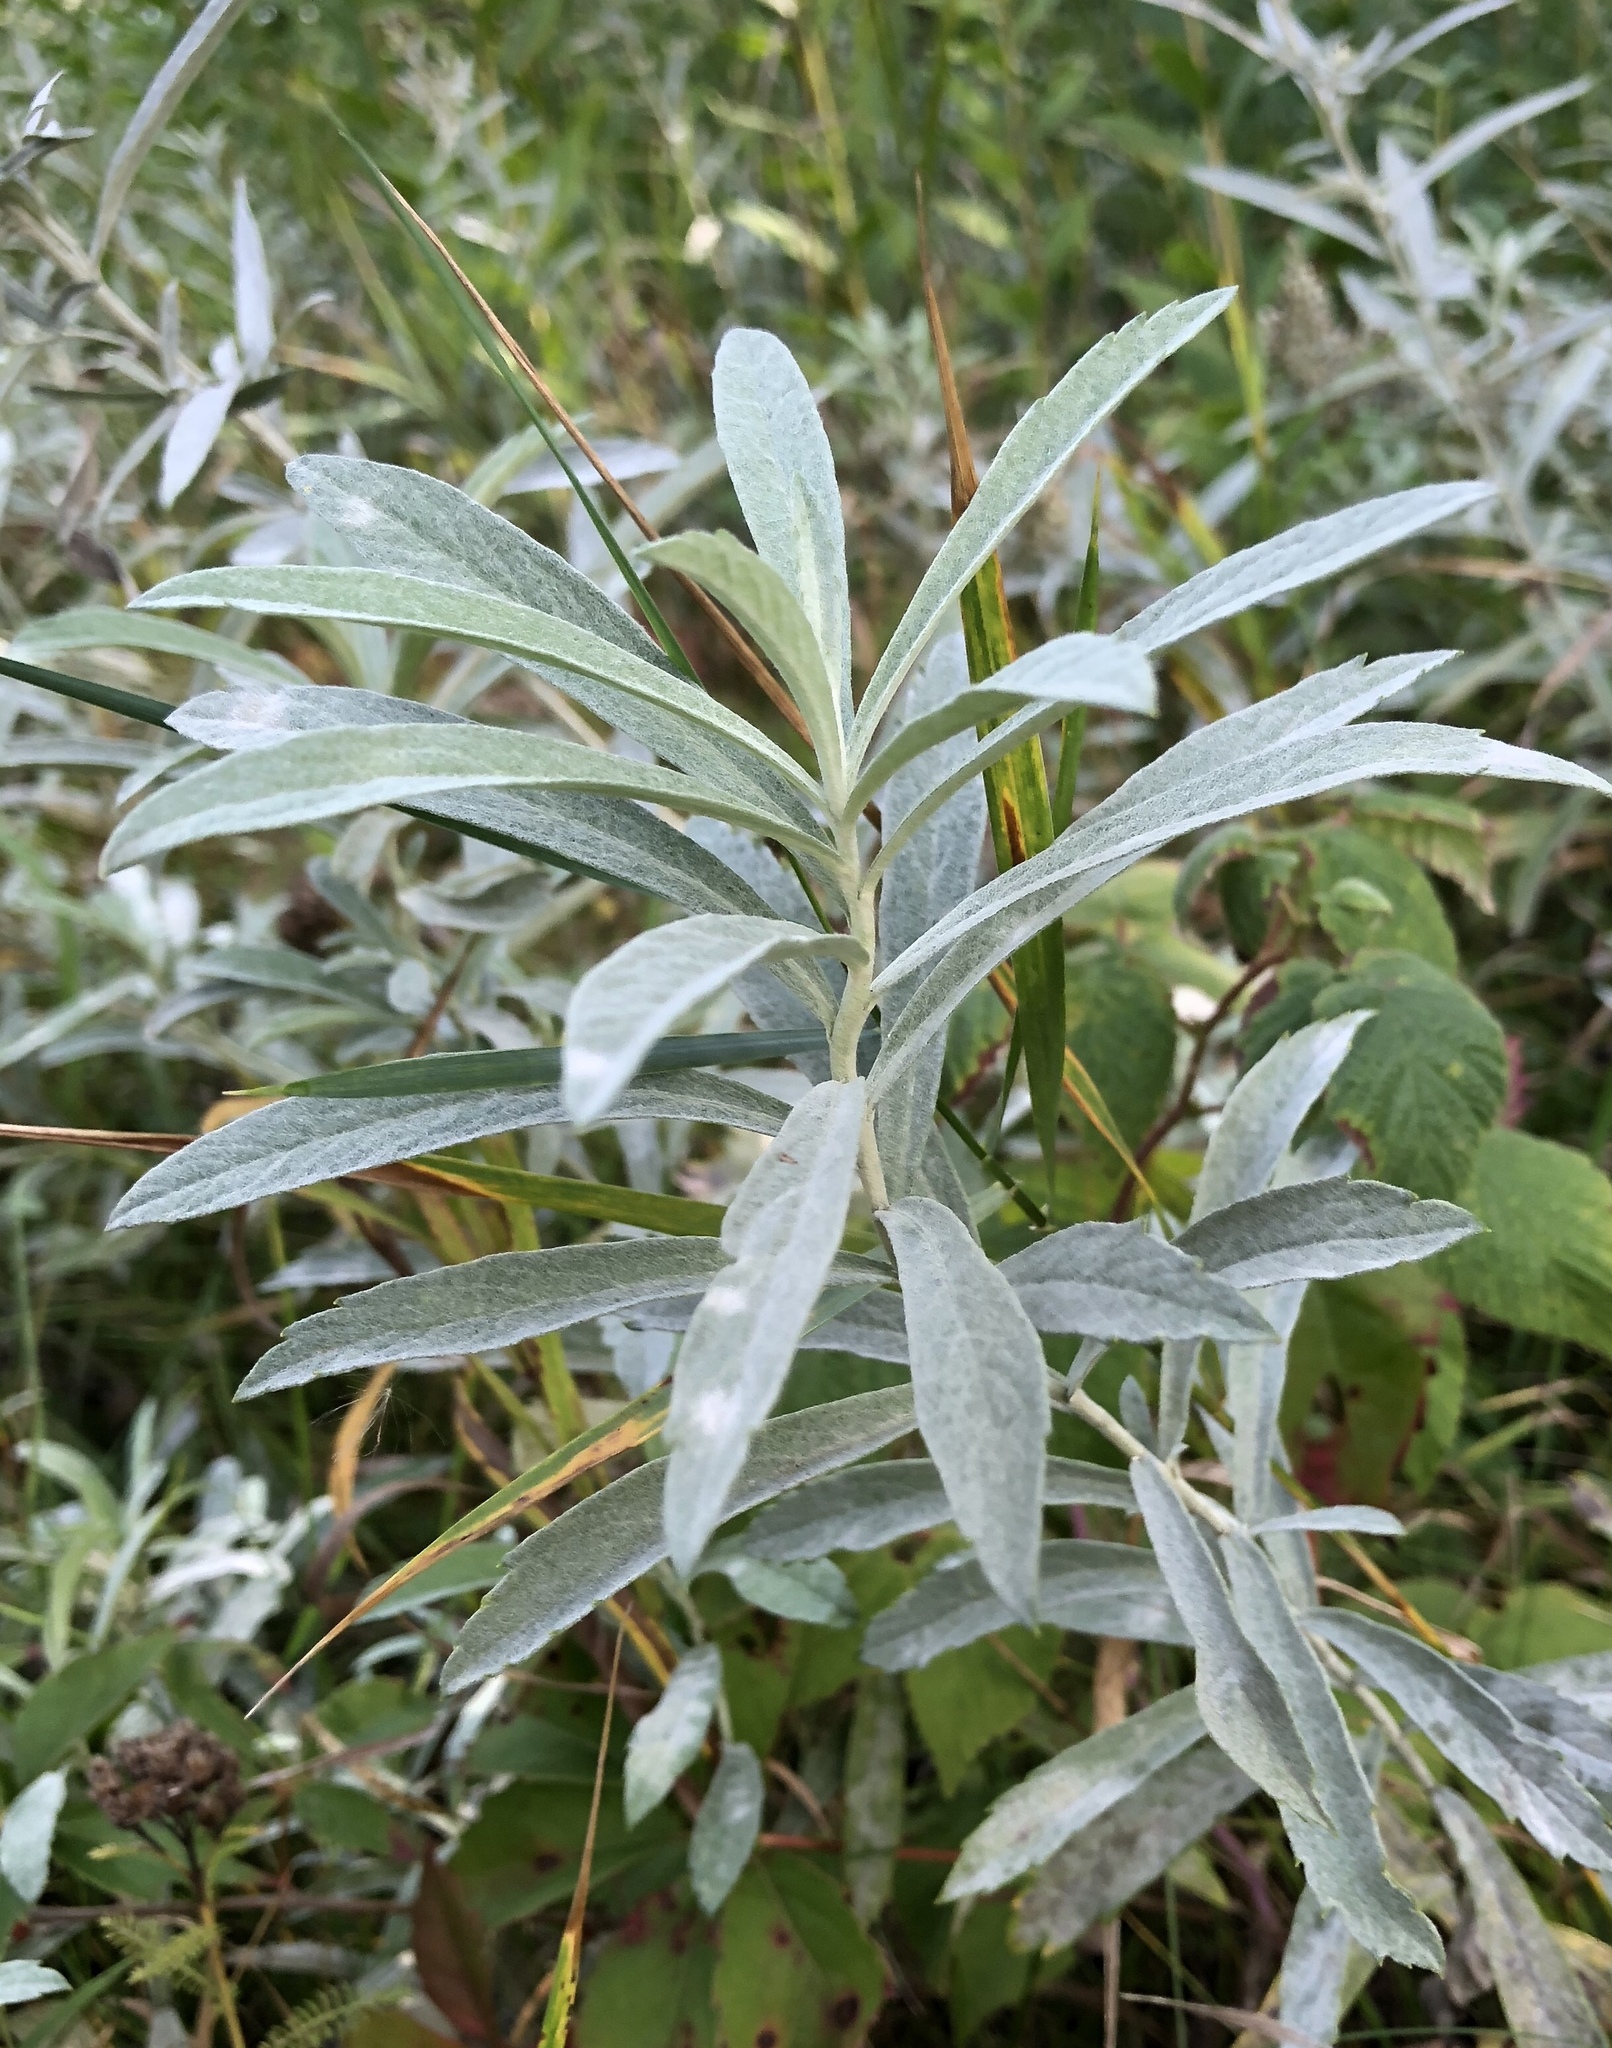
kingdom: Plantae
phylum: Tracheophyta
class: Magnoliopsida
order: Asterales
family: Asteraceae
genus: Artemisia
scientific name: Artemisia ludoviciana
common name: Western mugwort
